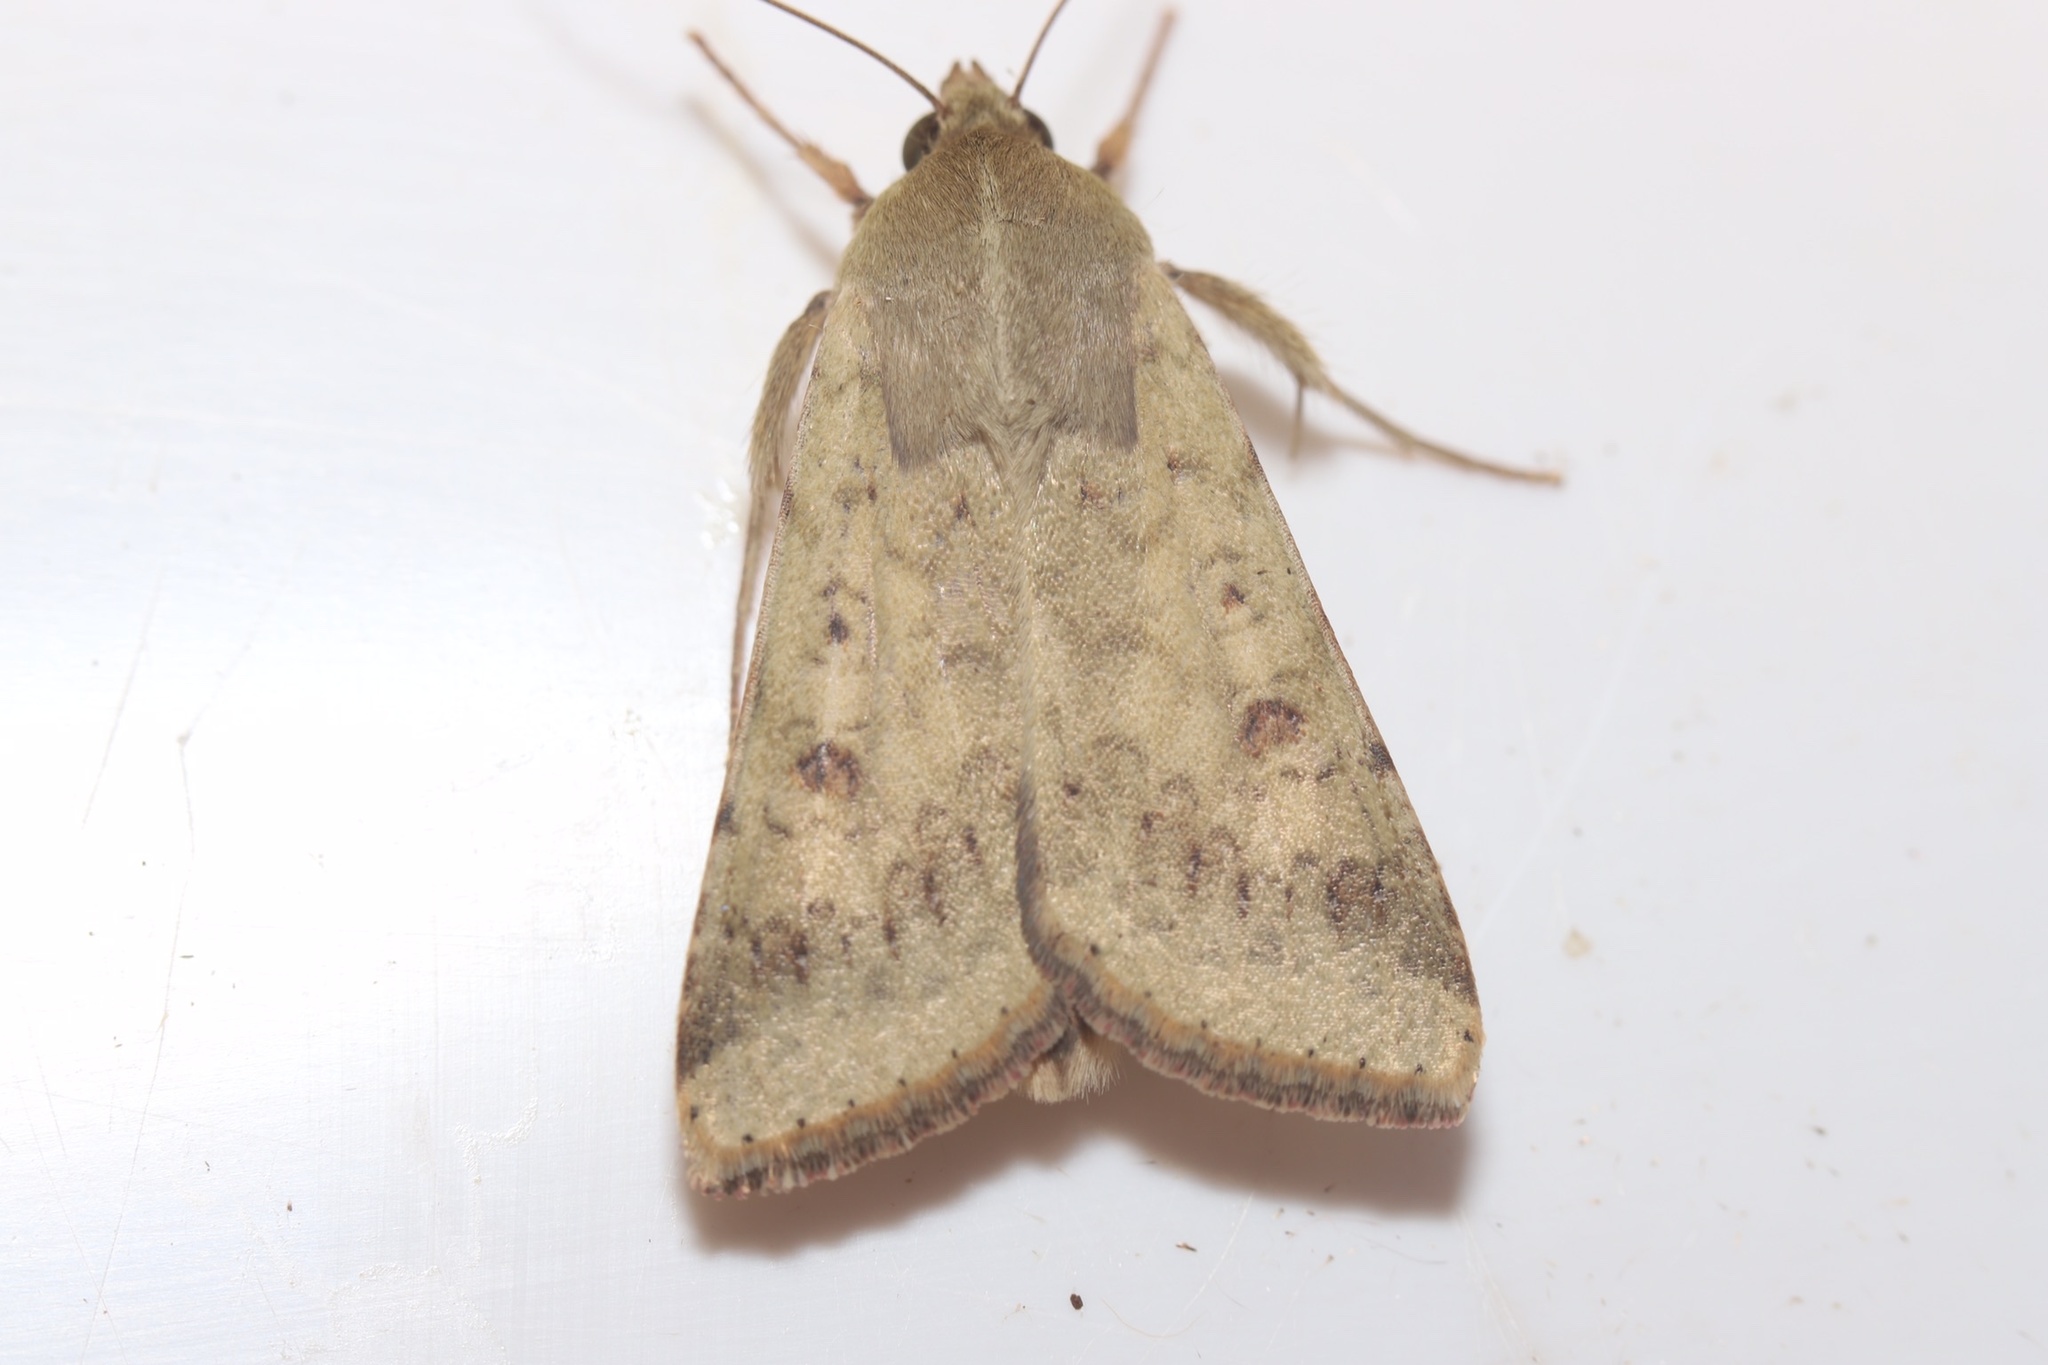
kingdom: Animalia
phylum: Arthropoda
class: Insecta
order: Lepidoptera
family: Noctuidae
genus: Helicoverpa
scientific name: Helicoverpa zea
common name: Bollworm
